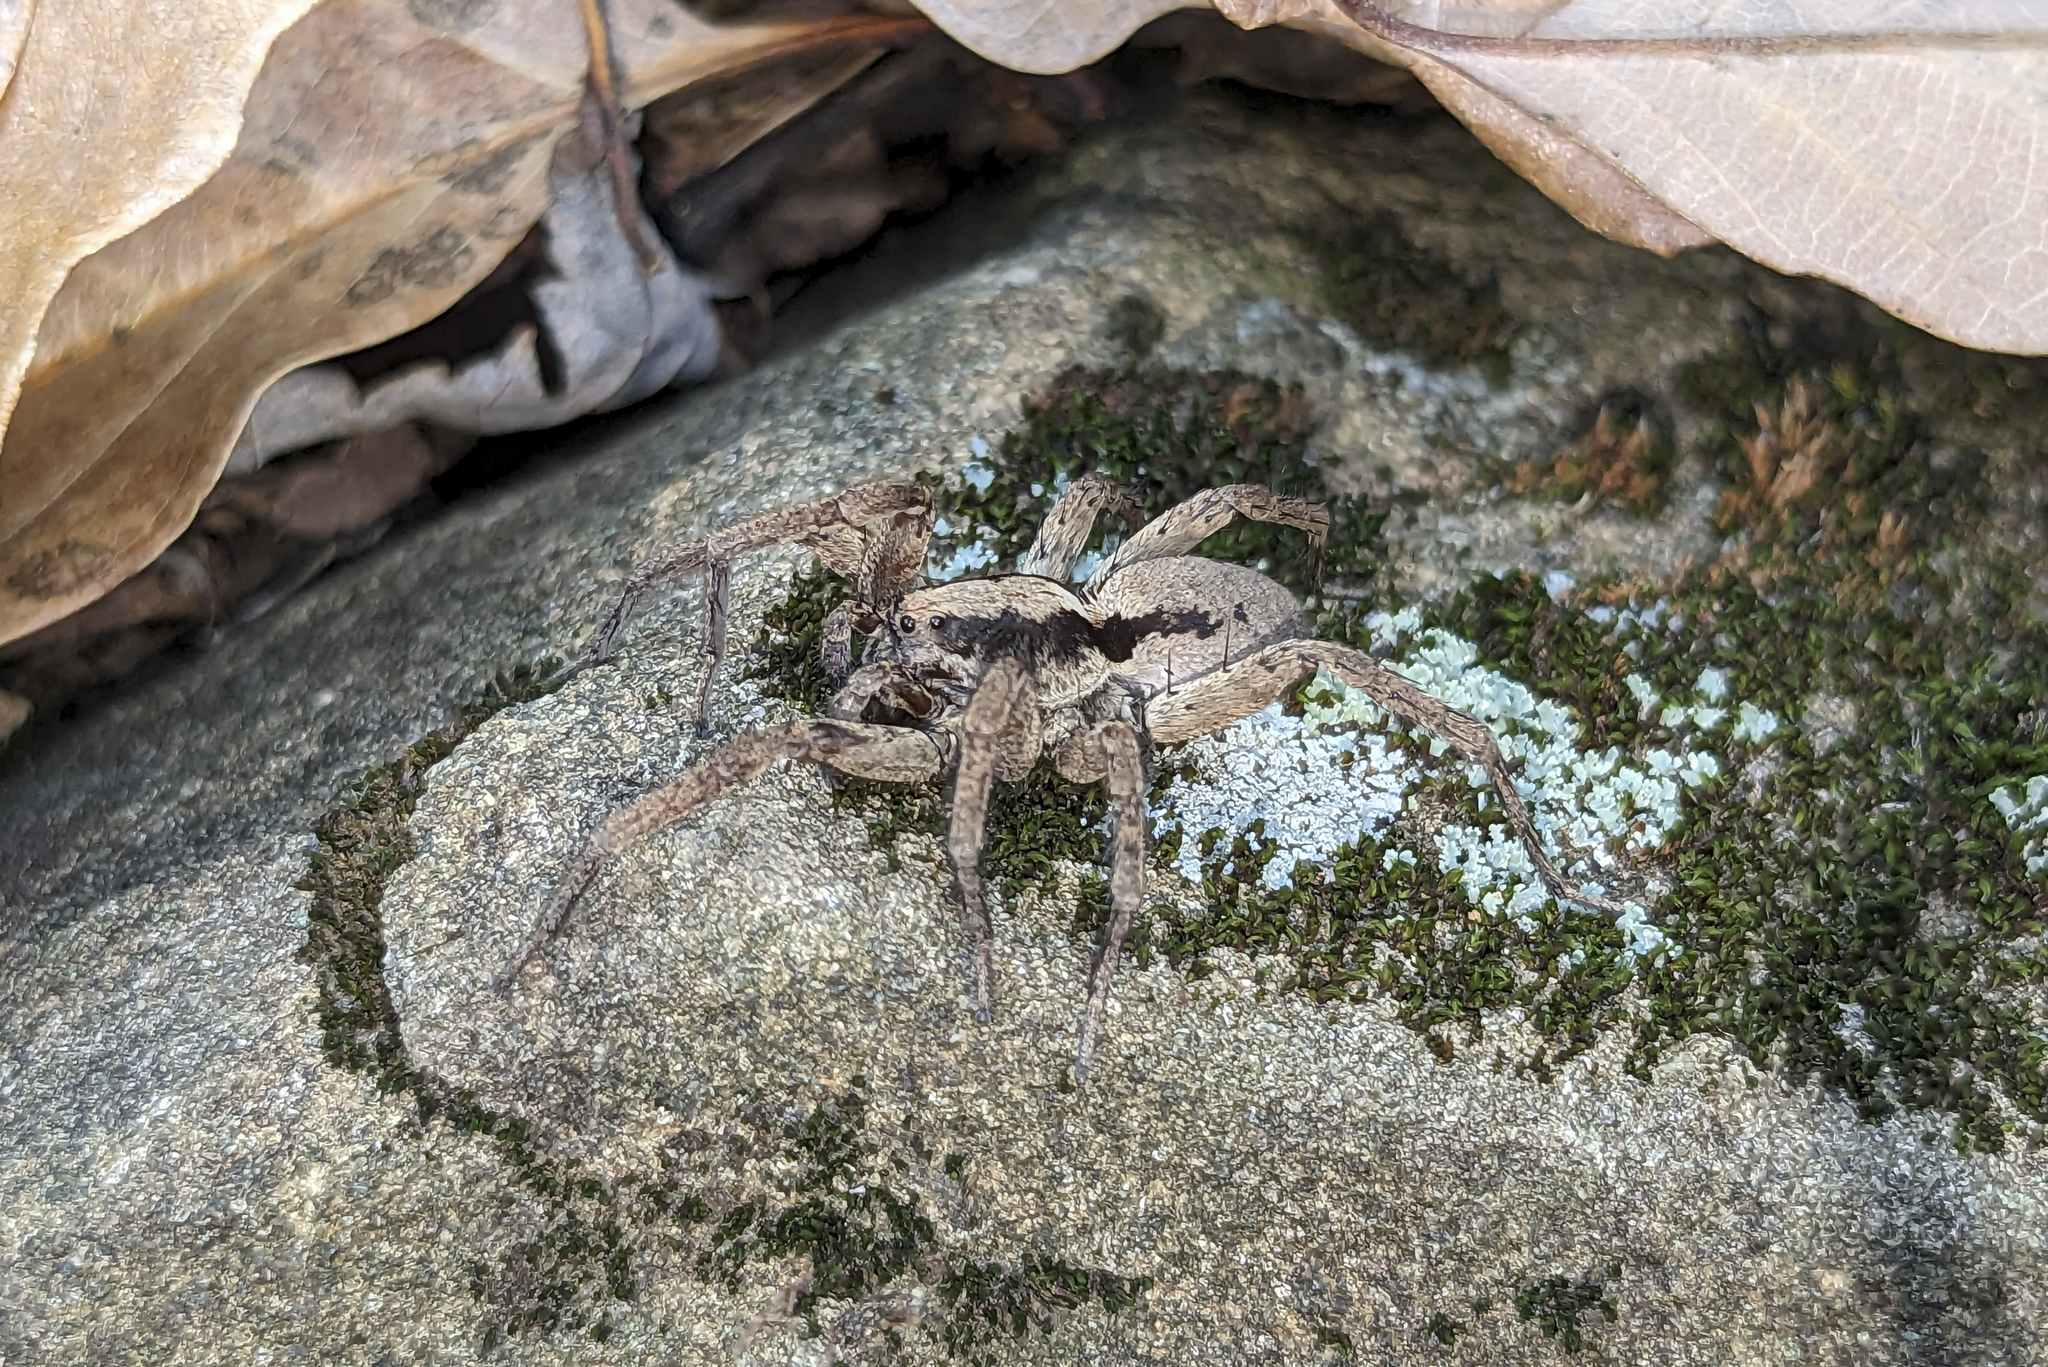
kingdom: Animalia
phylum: Arthropoda
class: Arachnida
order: Araneae
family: Lycosidae
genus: Gladicosa
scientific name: Gladicosa gulosa
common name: Drumming sword wolf spider
